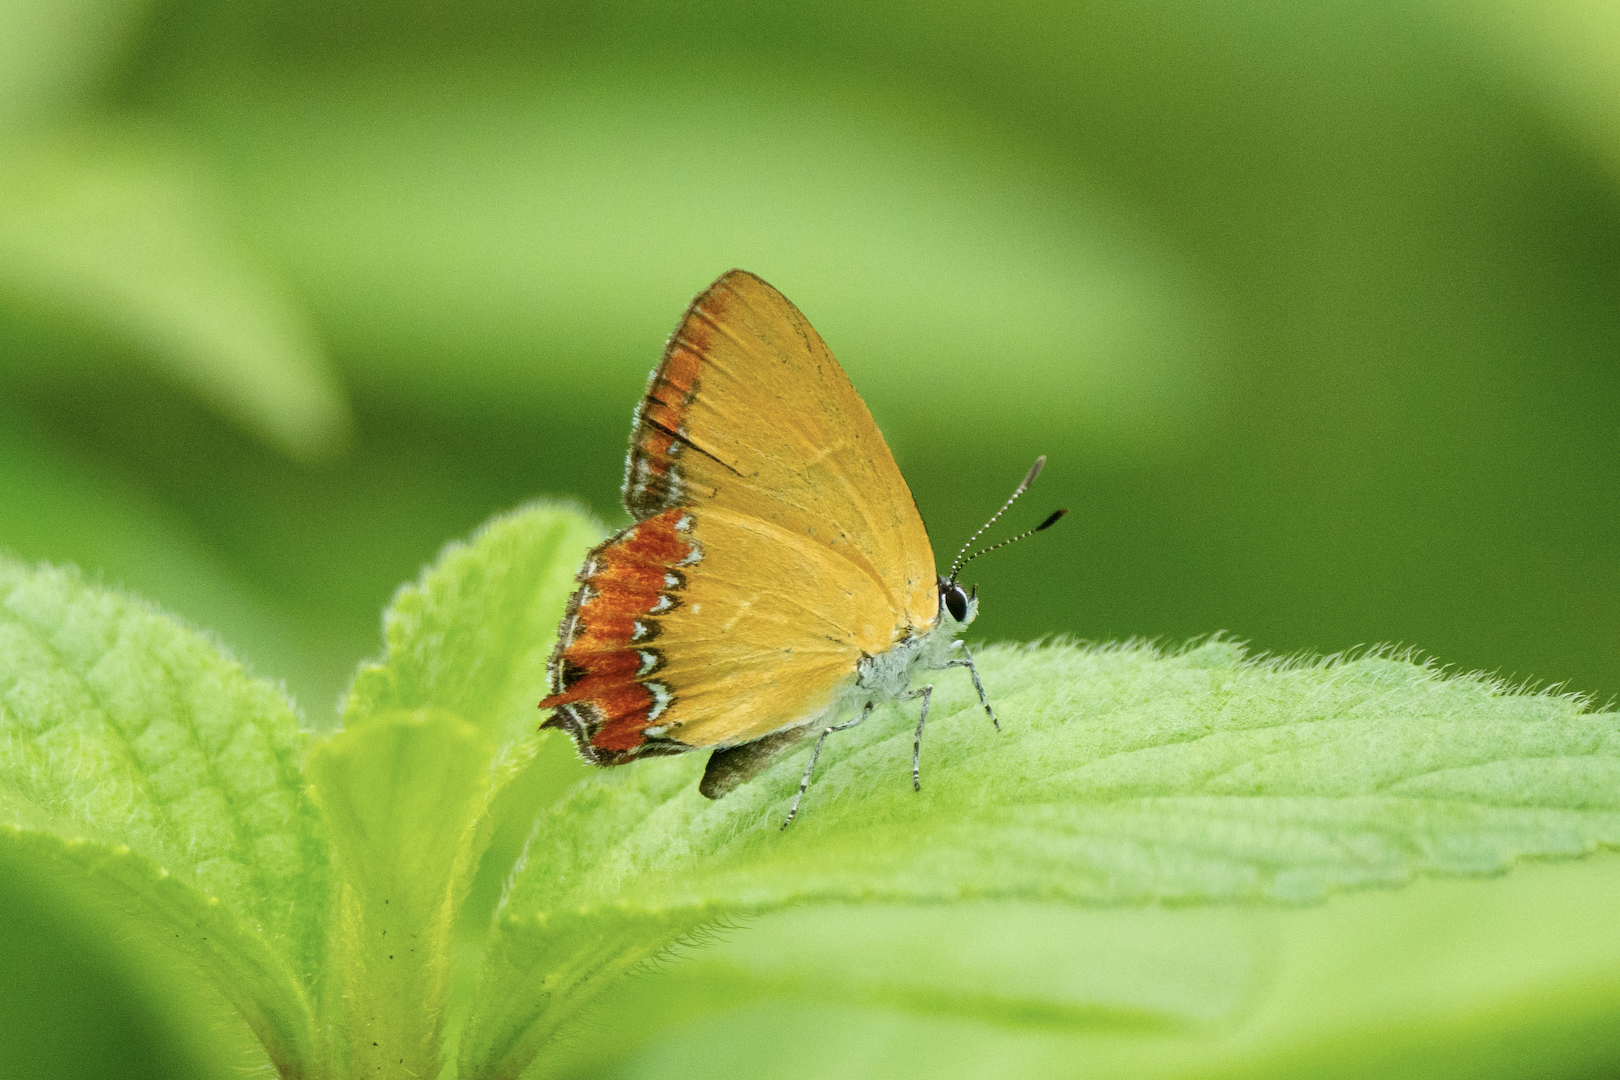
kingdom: Animalia
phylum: Arthropoda
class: Insecta
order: Lepidoptera
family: Lycaenidae
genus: Heliophorus
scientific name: Heliophorus epicles
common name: Purple sapphire
